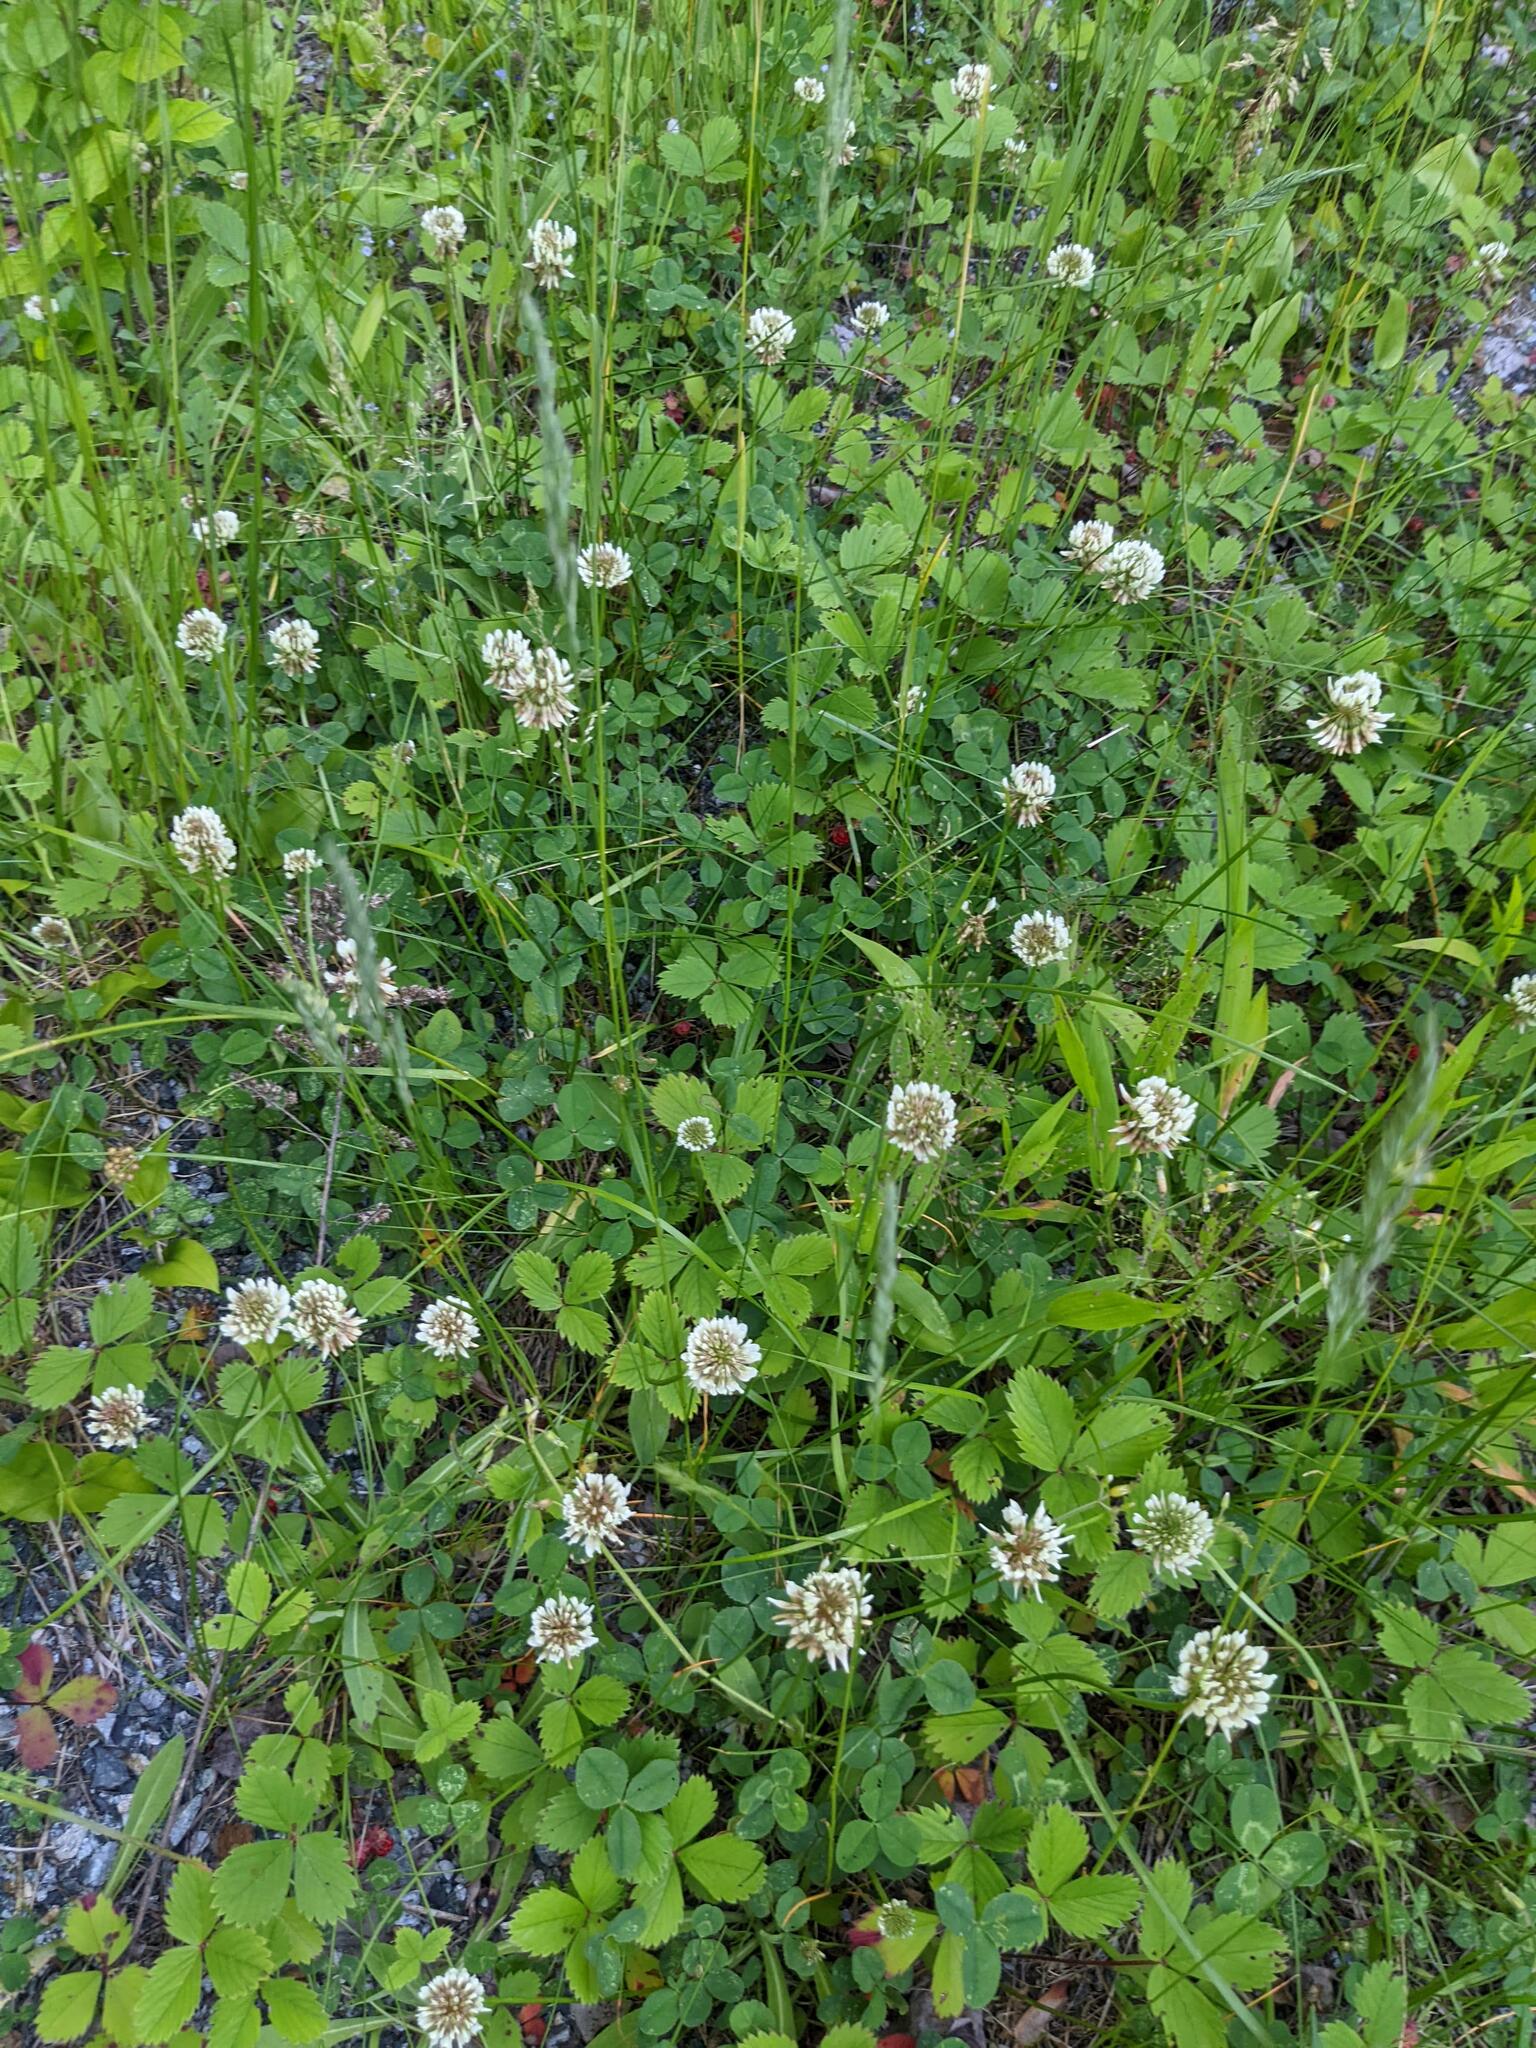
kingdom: Plantae
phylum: Tracheophyta
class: Magnoliopsida
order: Fabales
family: Fabaceae
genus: Trifolium
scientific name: Trifolium repens
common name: White clover
